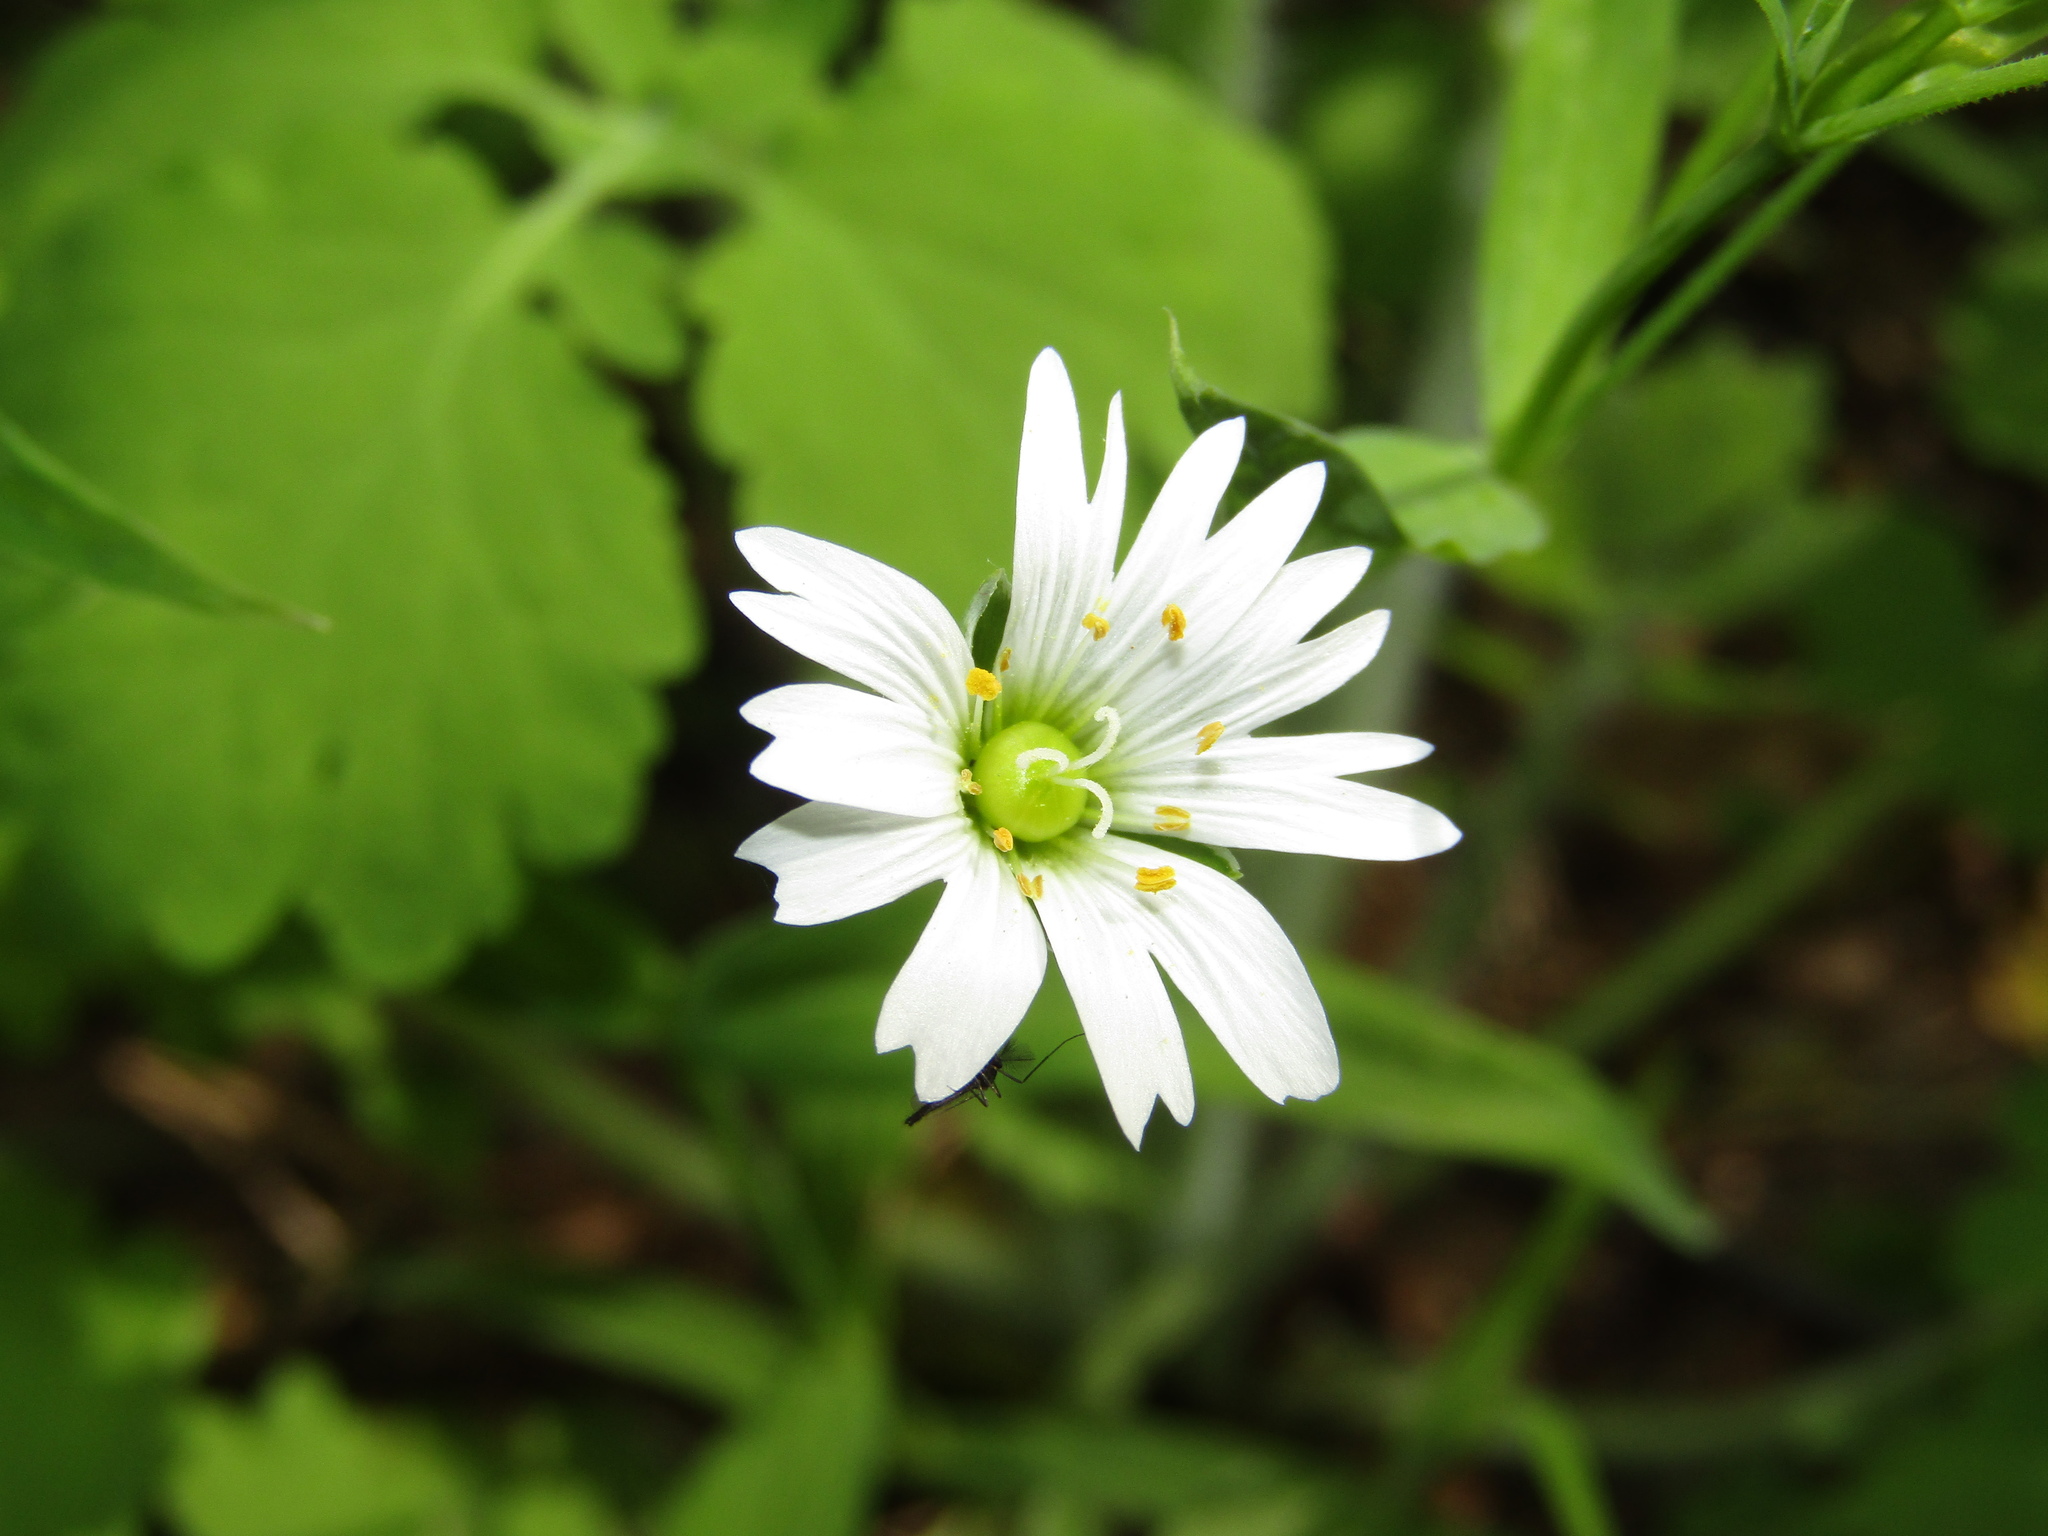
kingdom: Plantae
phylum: Tracheophyta
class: Magnoliopsida
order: Caryophyllales
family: Caryophyllaceae
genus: Rabelera
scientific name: Rabelera holostea
